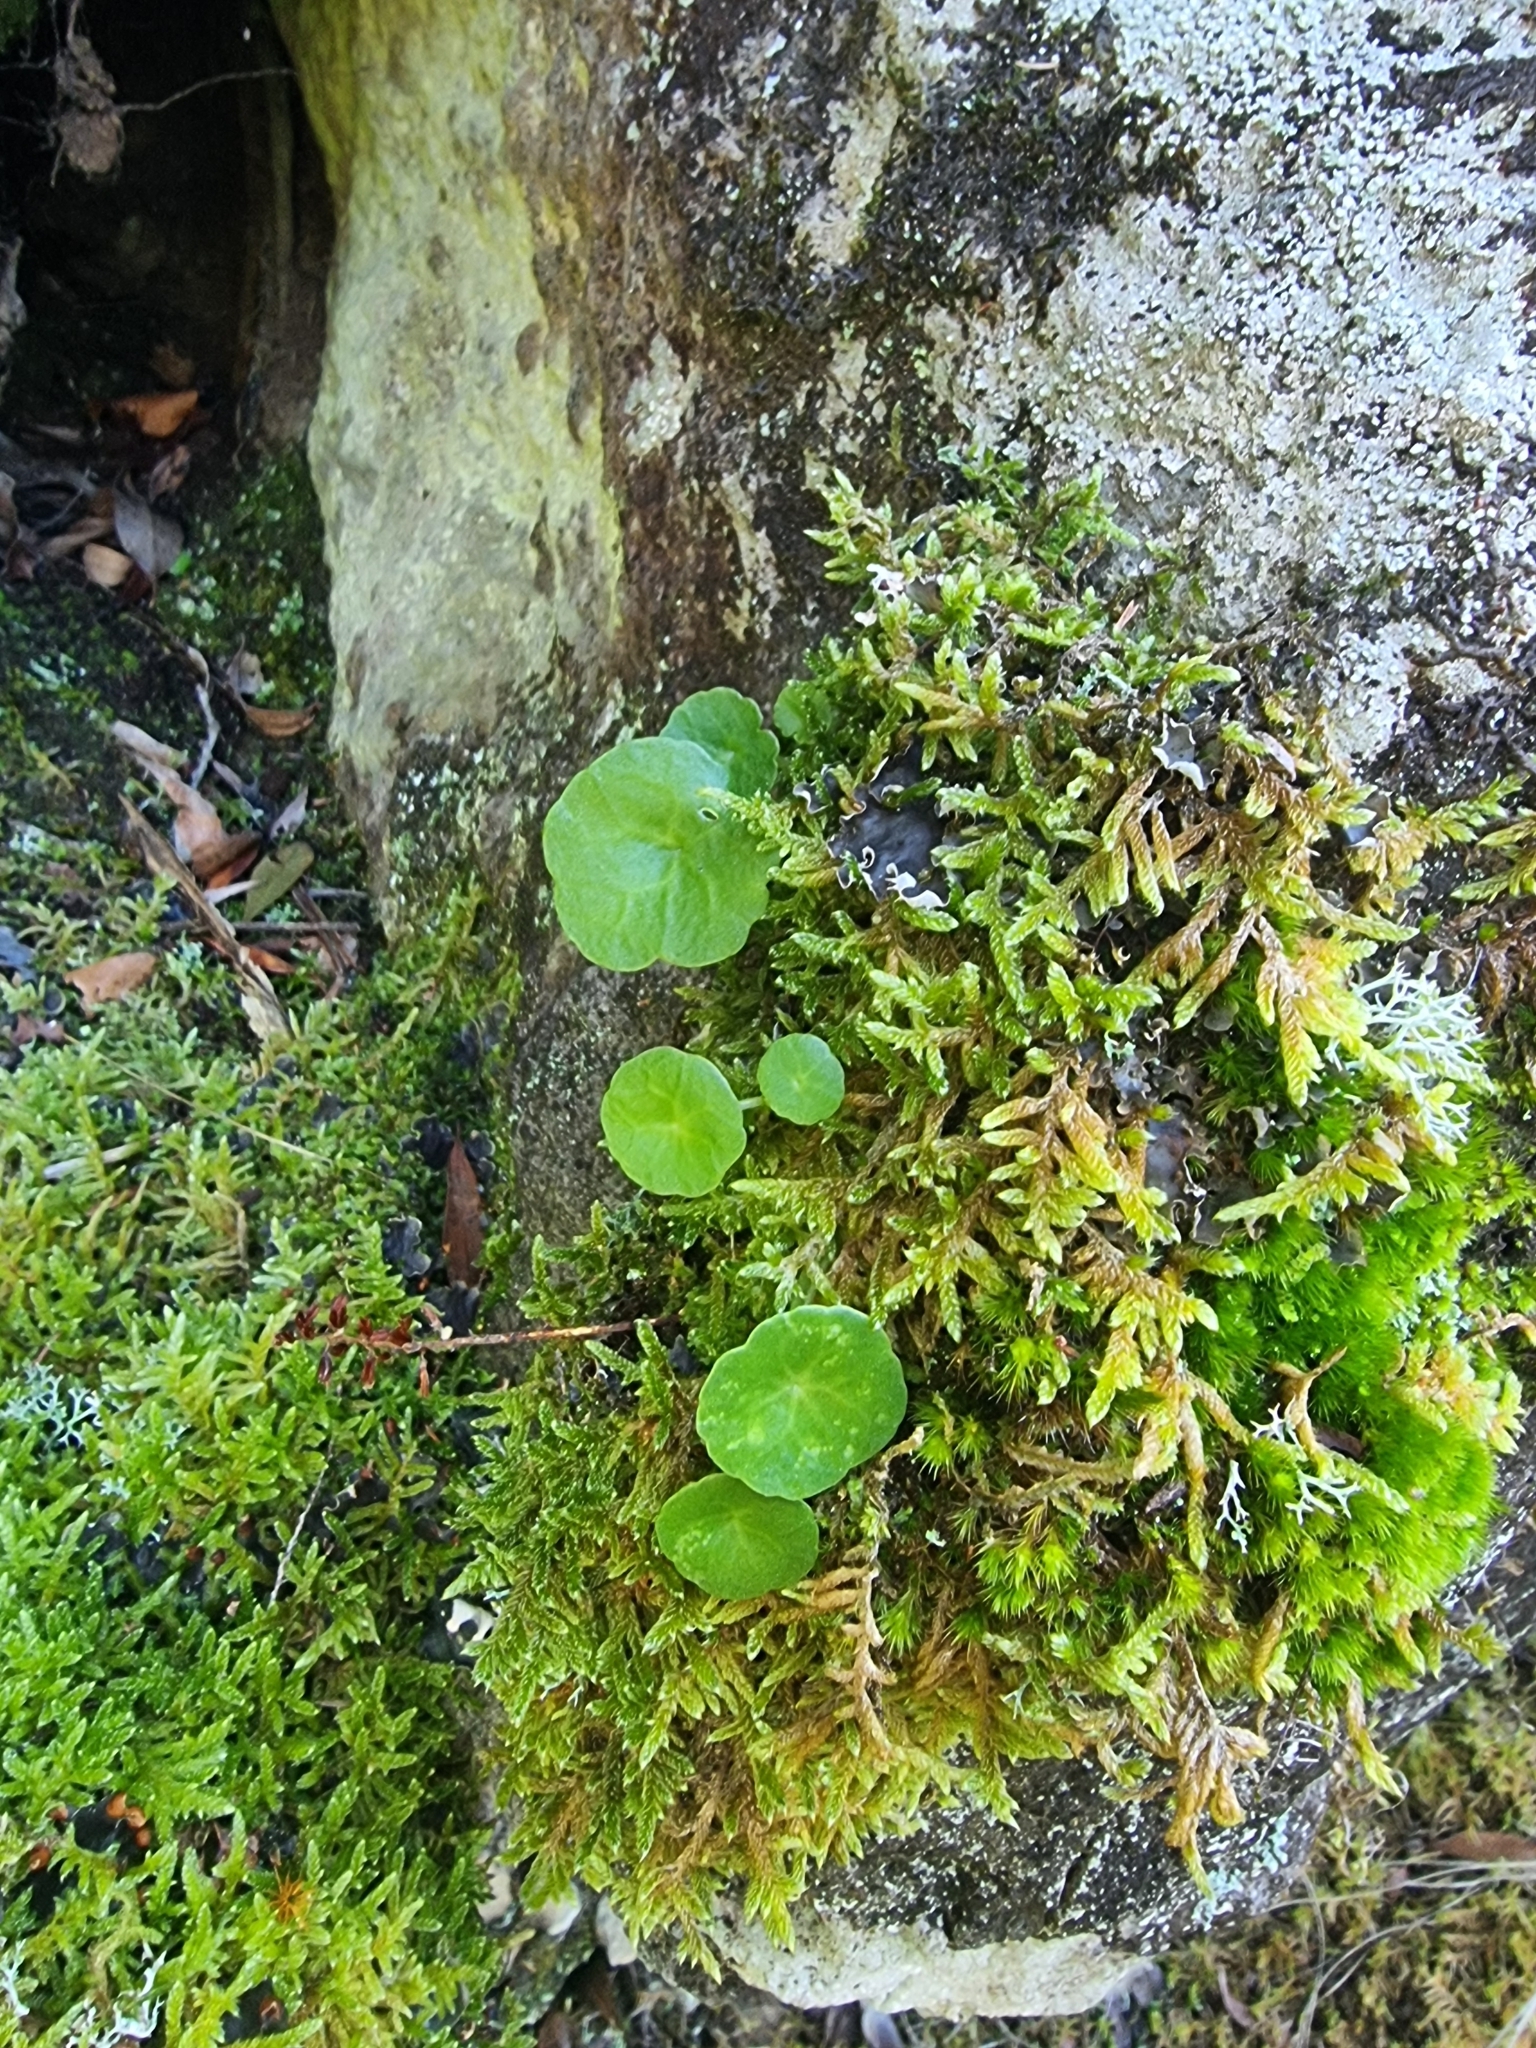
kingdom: Plantae
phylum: Tracheophyta
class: Magnoliopsida
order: Saxifragales
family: Crassulaceae
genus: Umbilicus
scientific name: Umbilicus rupestris
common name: Navelwort
